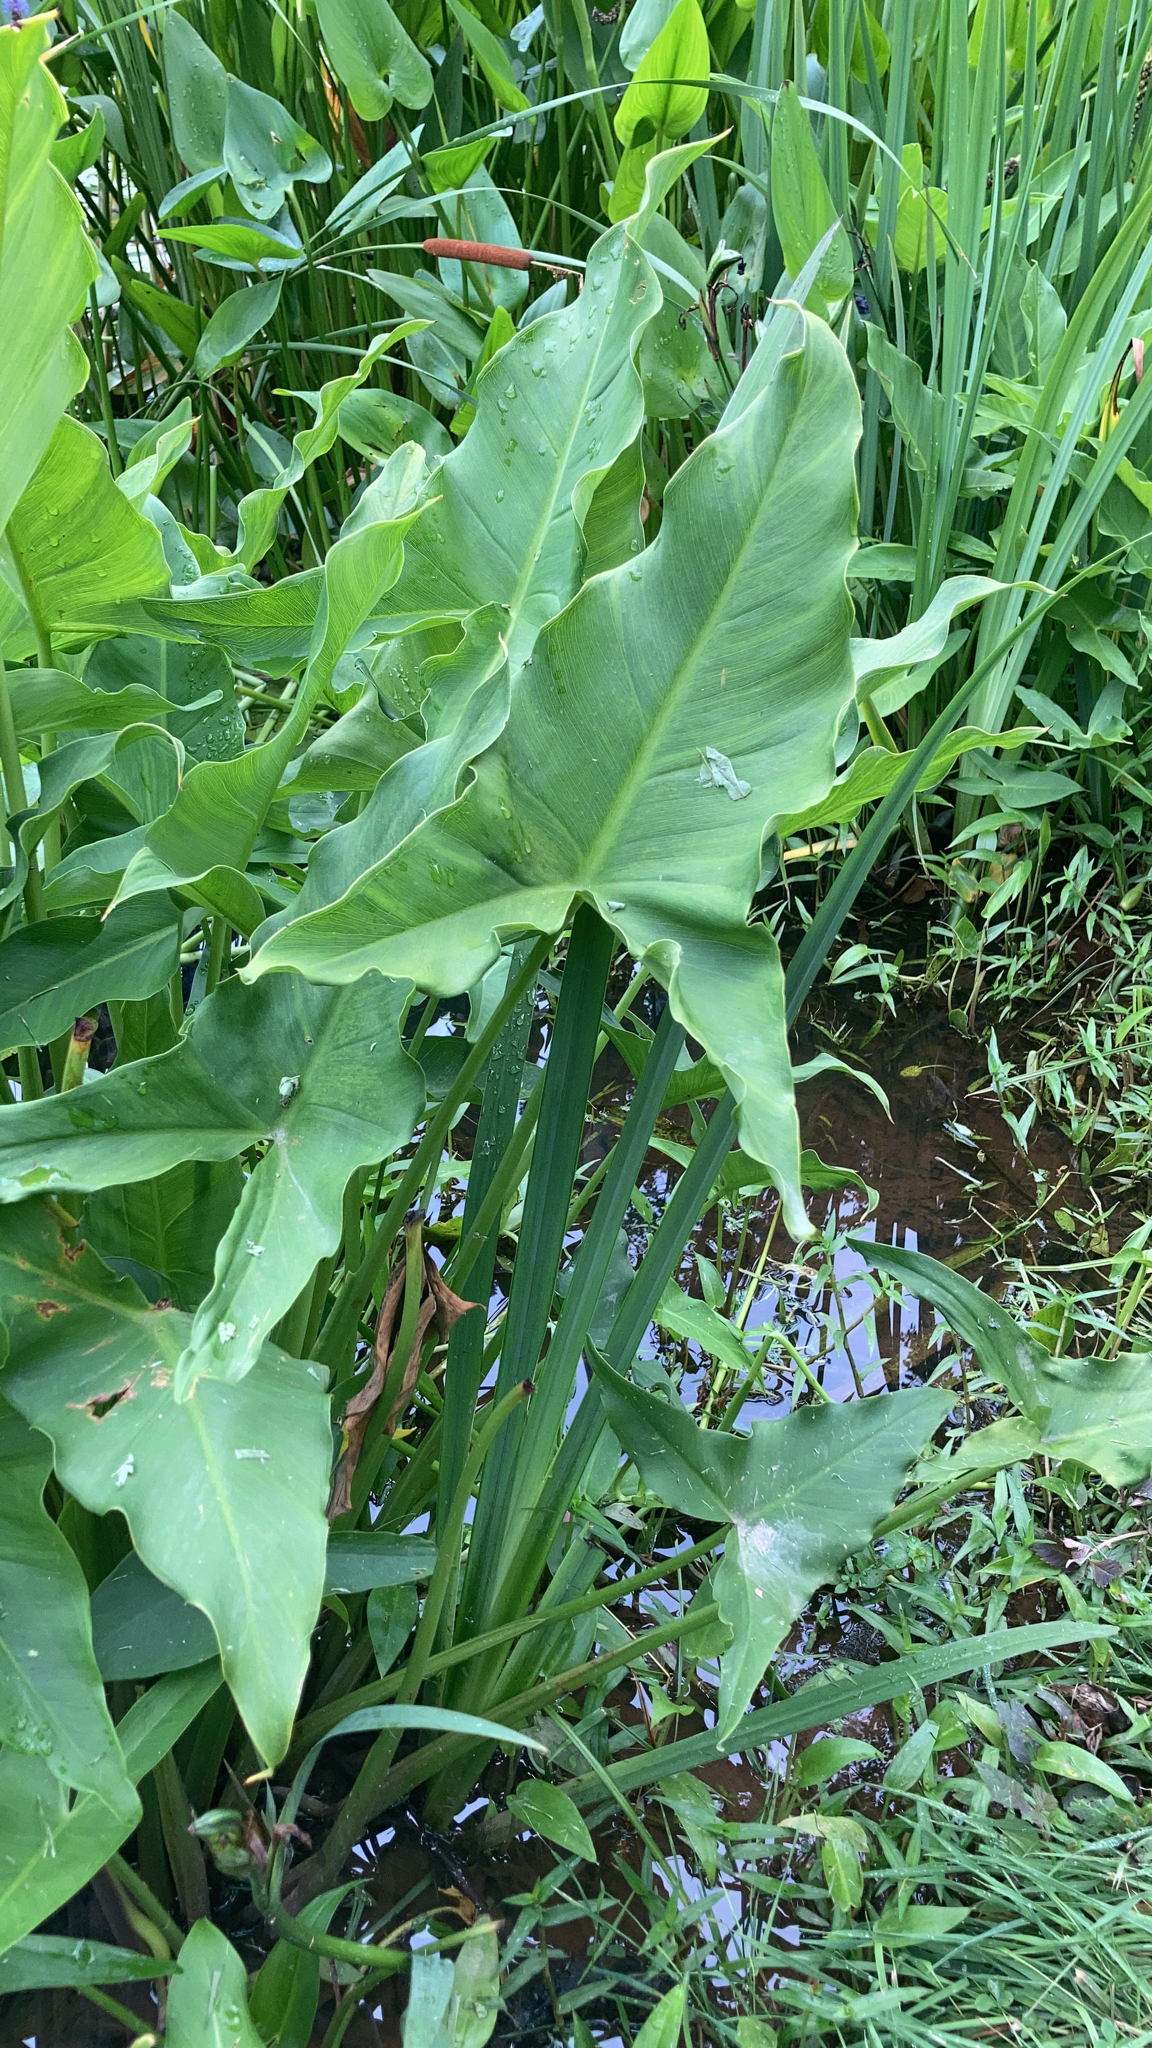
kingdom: Plantae
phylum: Tracheophyta
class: Liliopsida
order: Alismatales
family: Araceae
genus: Peltandra
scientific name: Peltandra virginica
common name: Arrow arum
